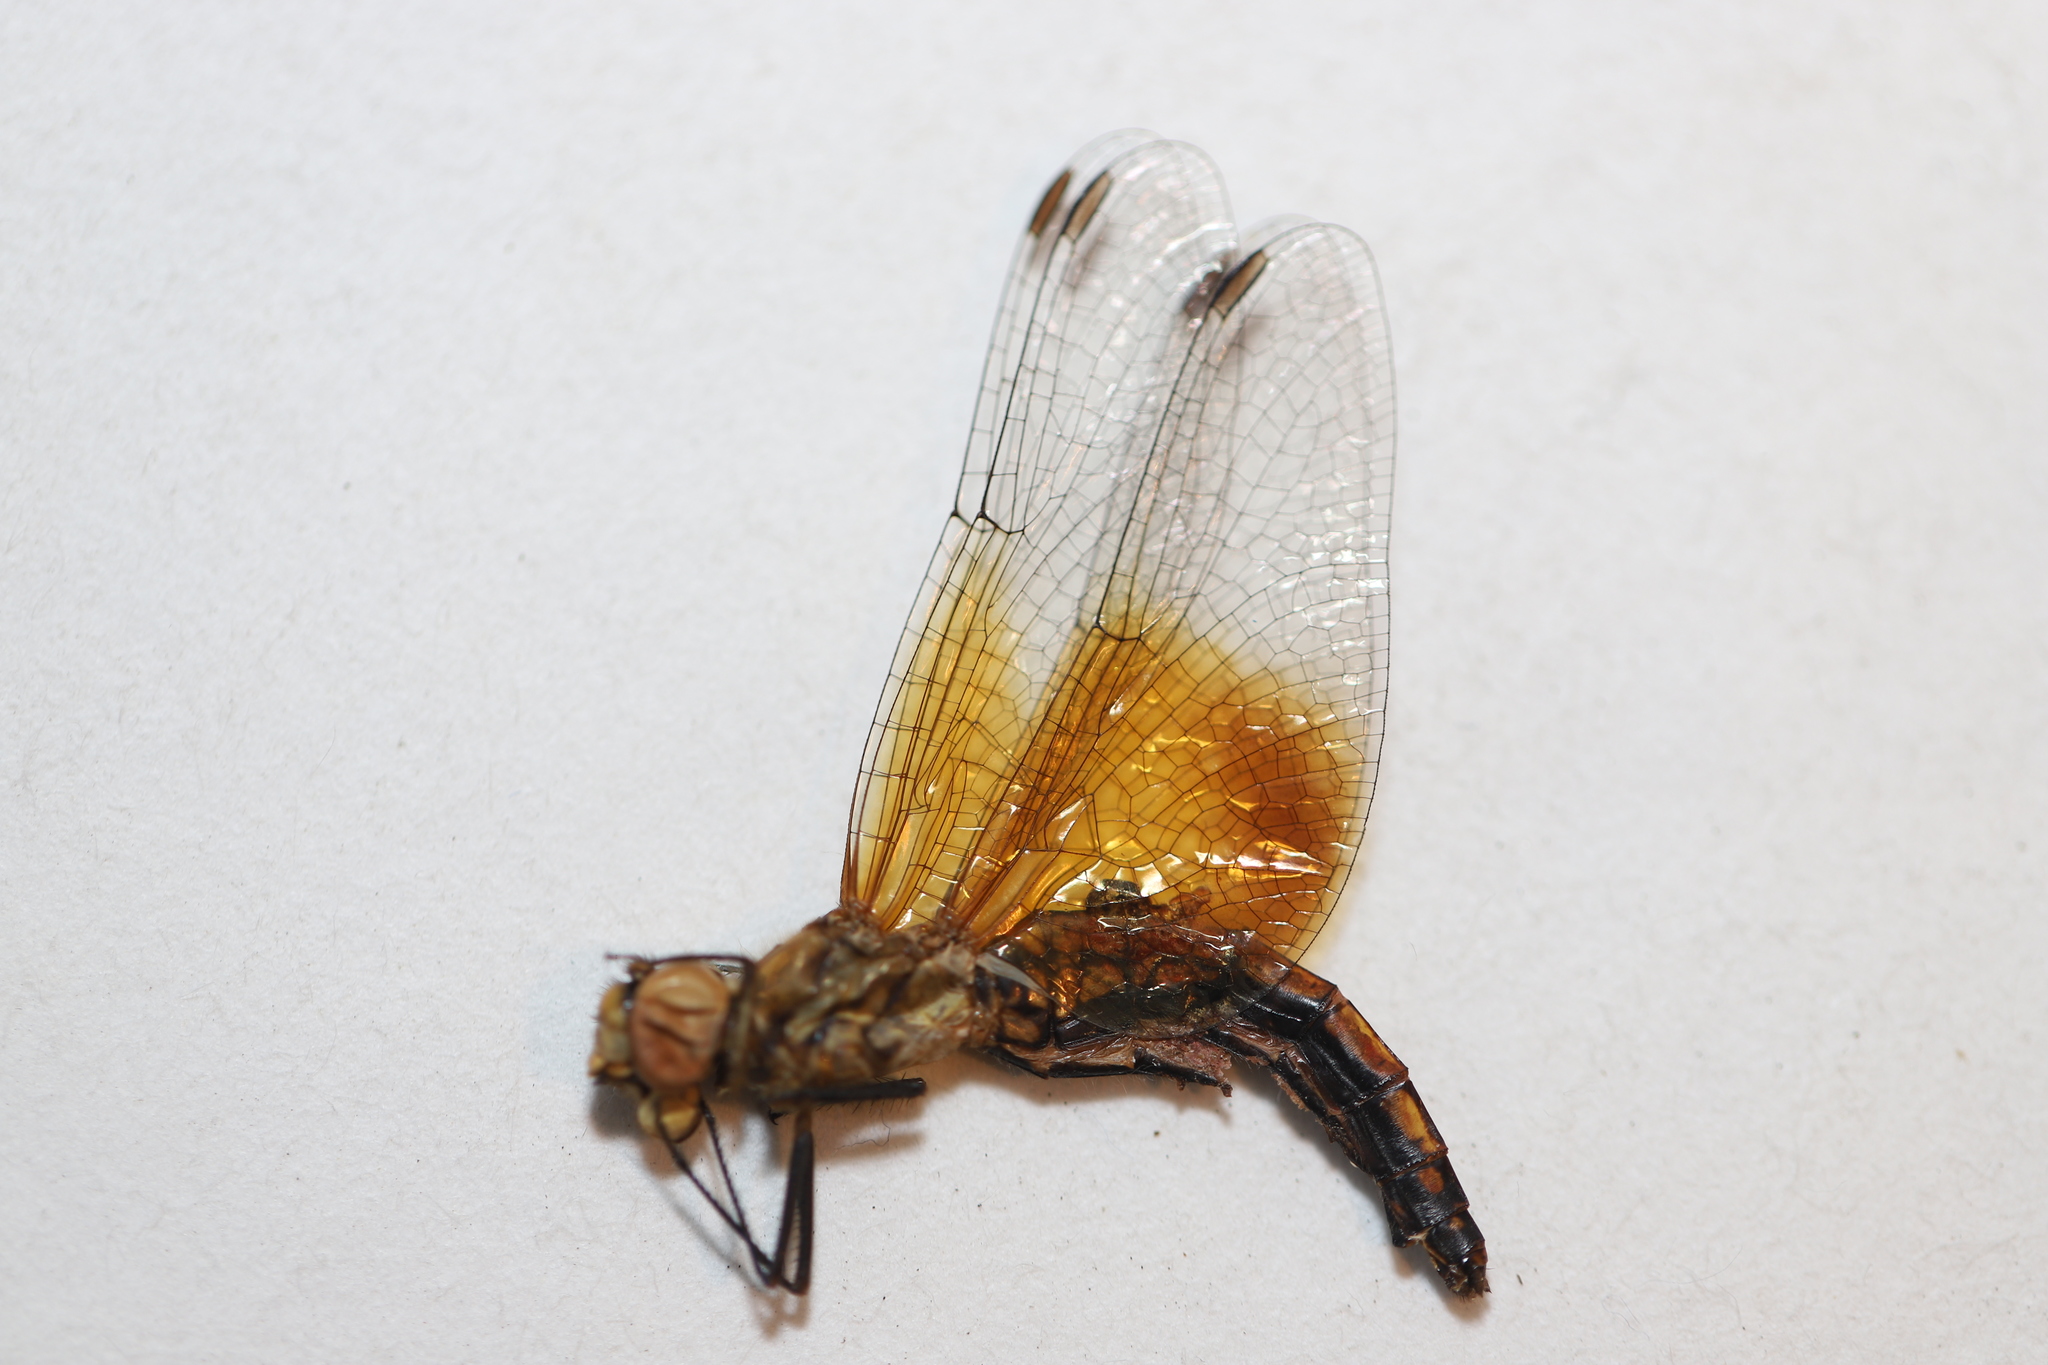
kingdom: Animalia
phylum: Arthropoda
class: Insecta
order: Odonata
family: Libellulidae
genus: Sympetrum
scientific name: Sympetrum semicinctum
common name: Band-winged meadowhawk
